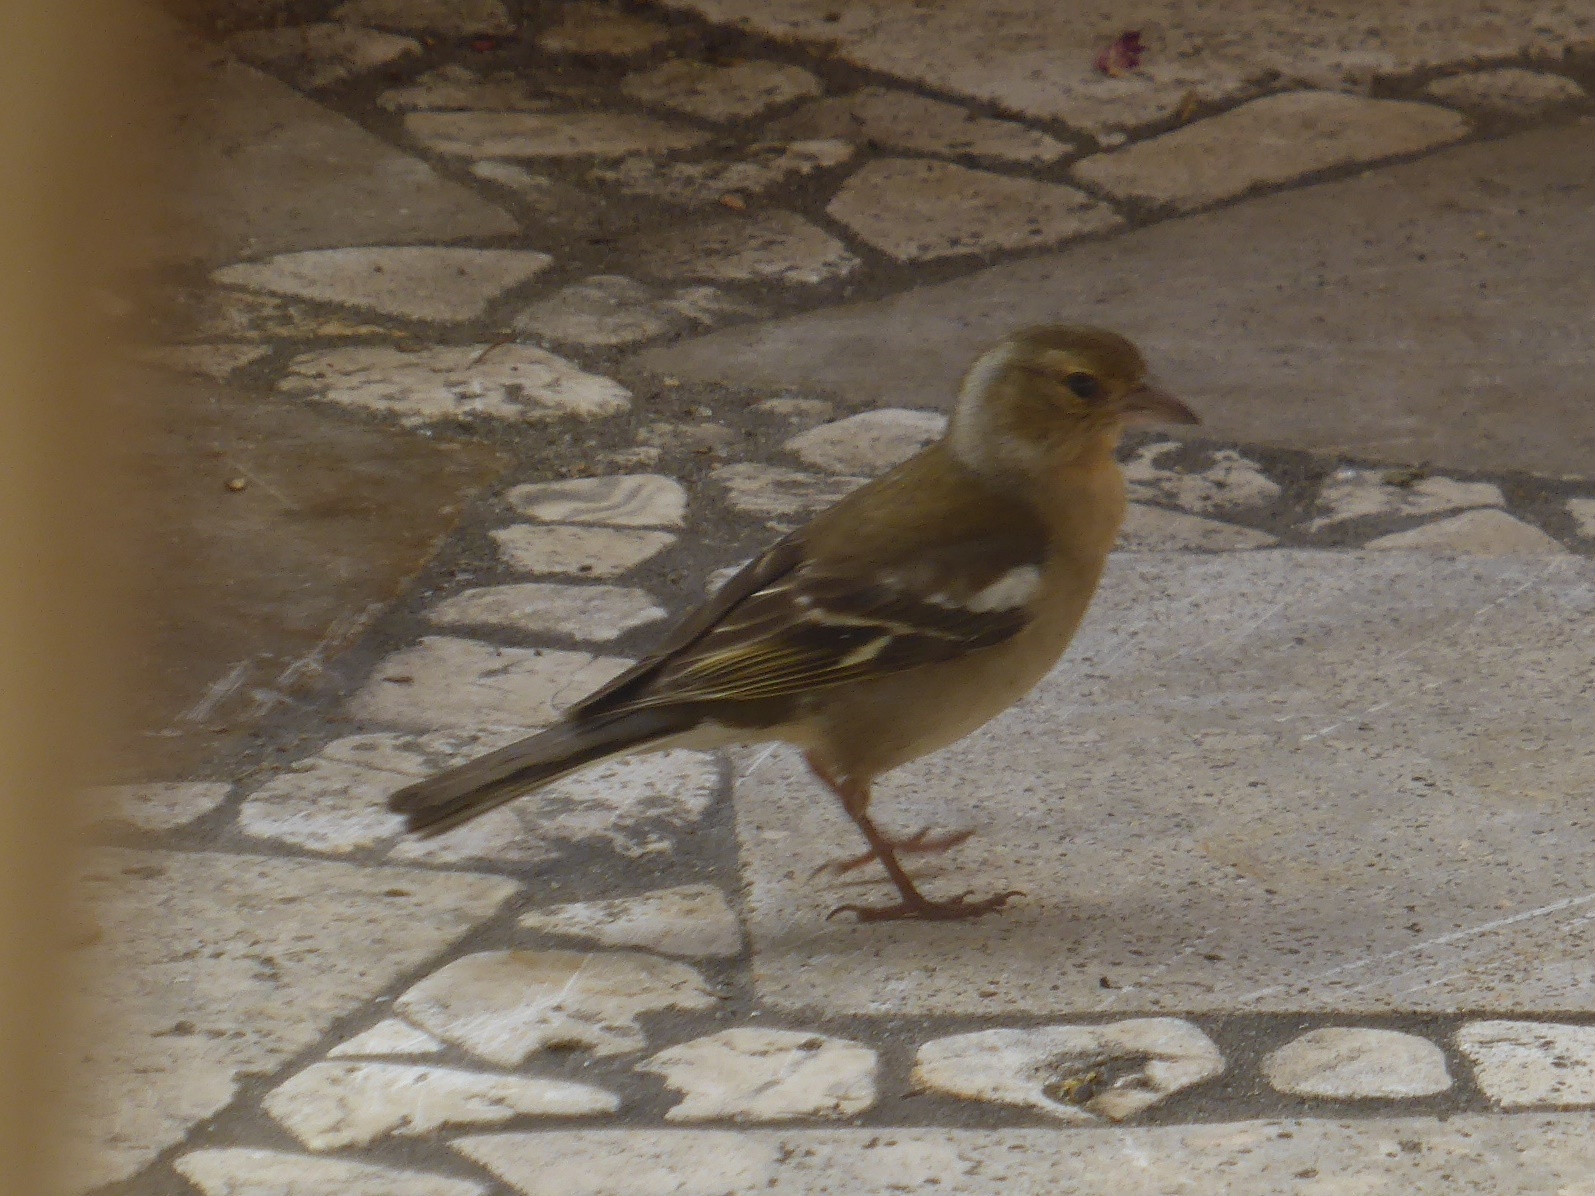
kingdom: Animalia
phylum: Chordata
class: Aves
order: Passeriformes
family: Fringillidae
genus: Fringilla
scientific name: Fringilla coelebs
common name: Common chaffinch
